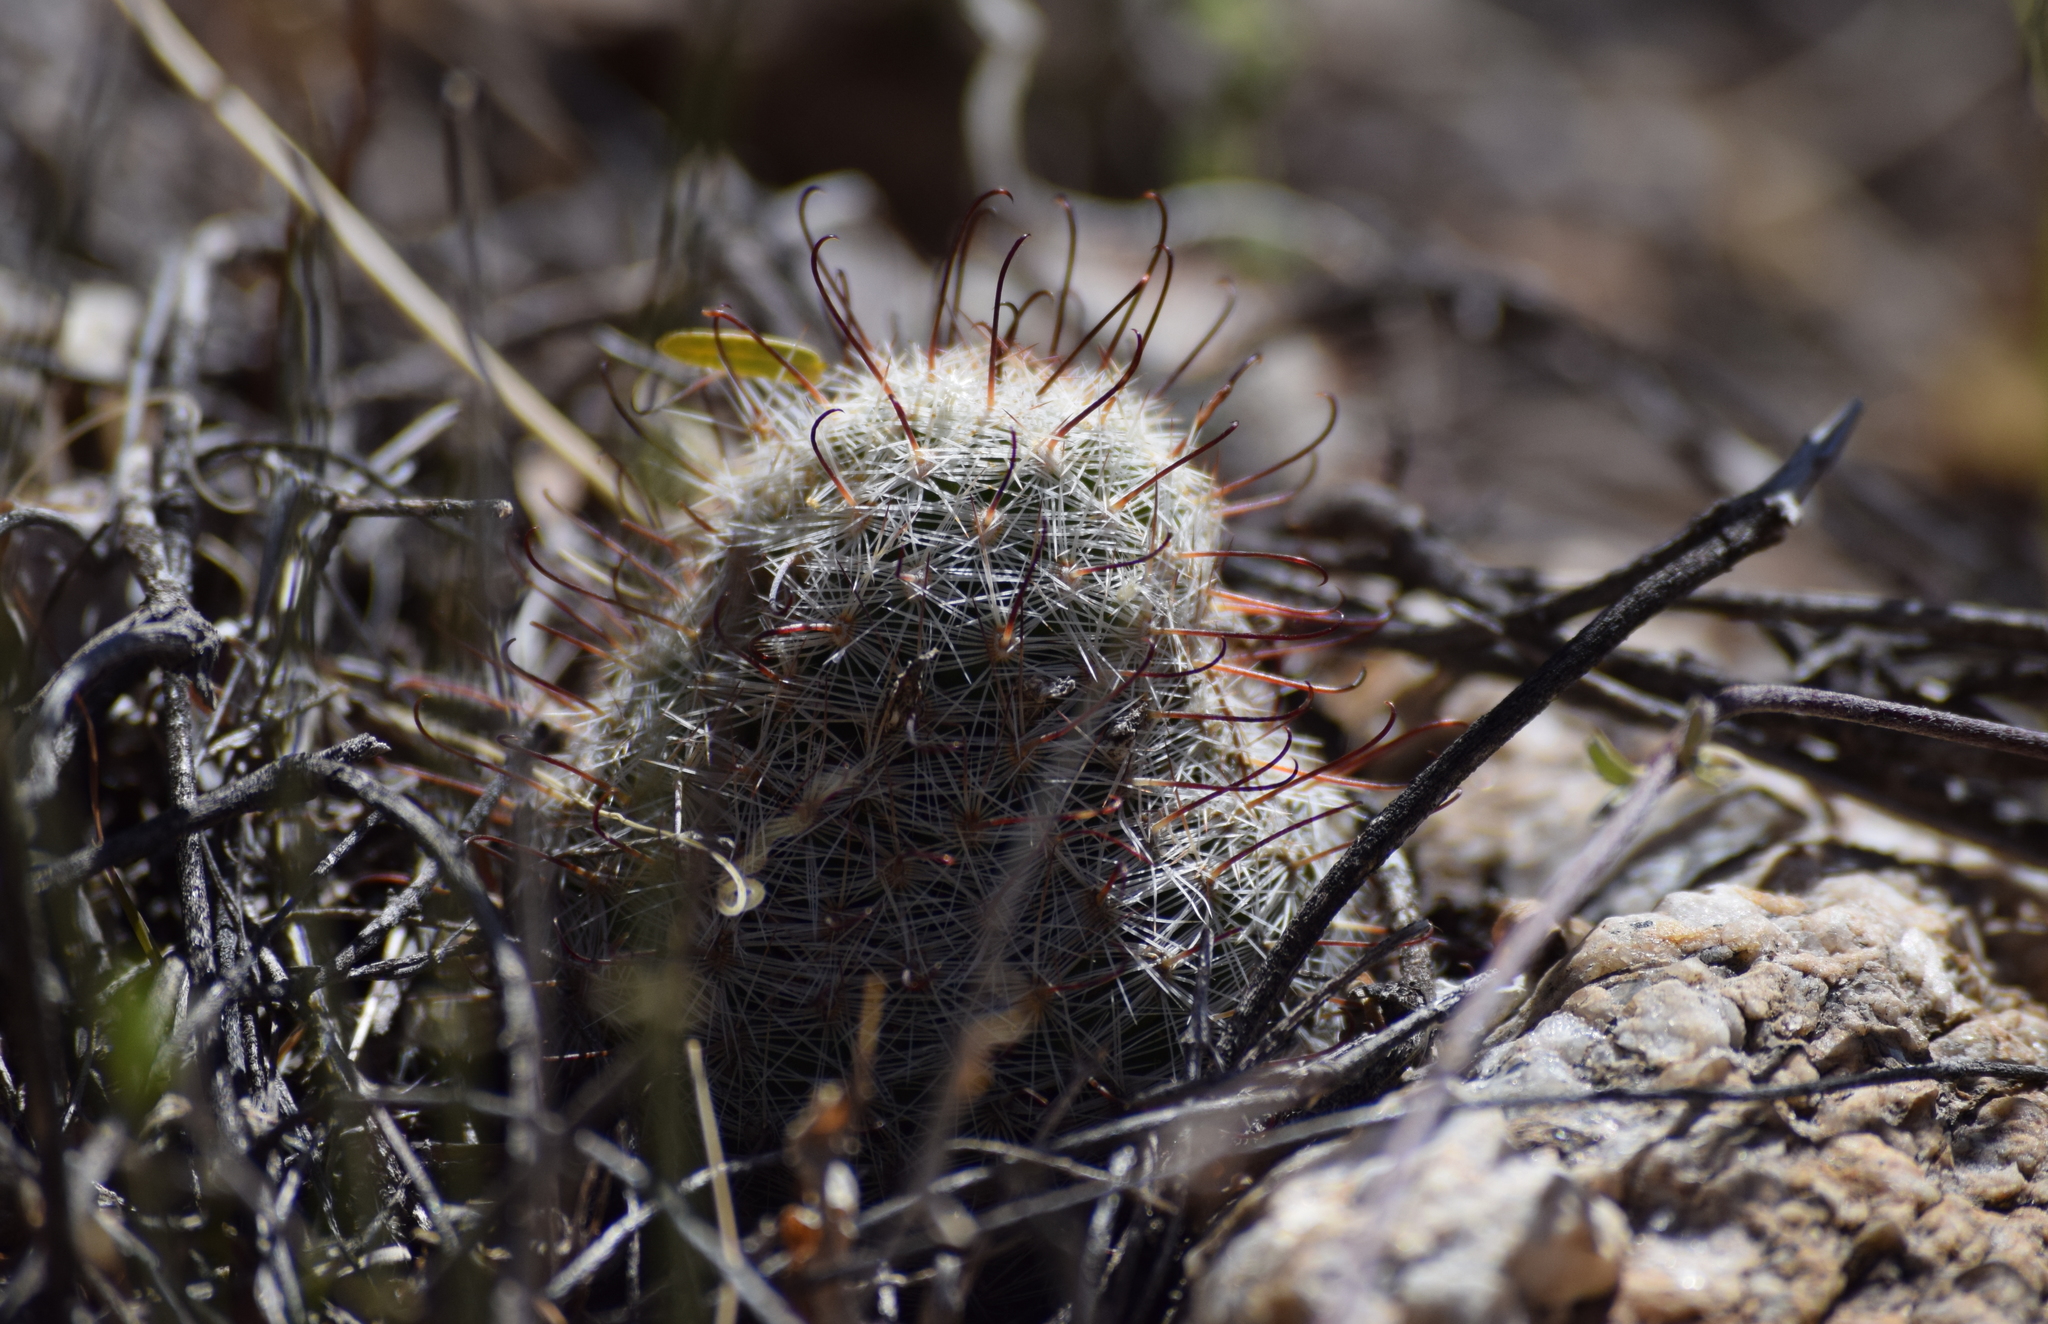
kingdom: Plantae
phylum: Tracheophyta
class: Magnoliopsida
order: Caryophyllales
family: Cactaceae
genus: Cochemiea
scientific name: Cochemiea grahamii
